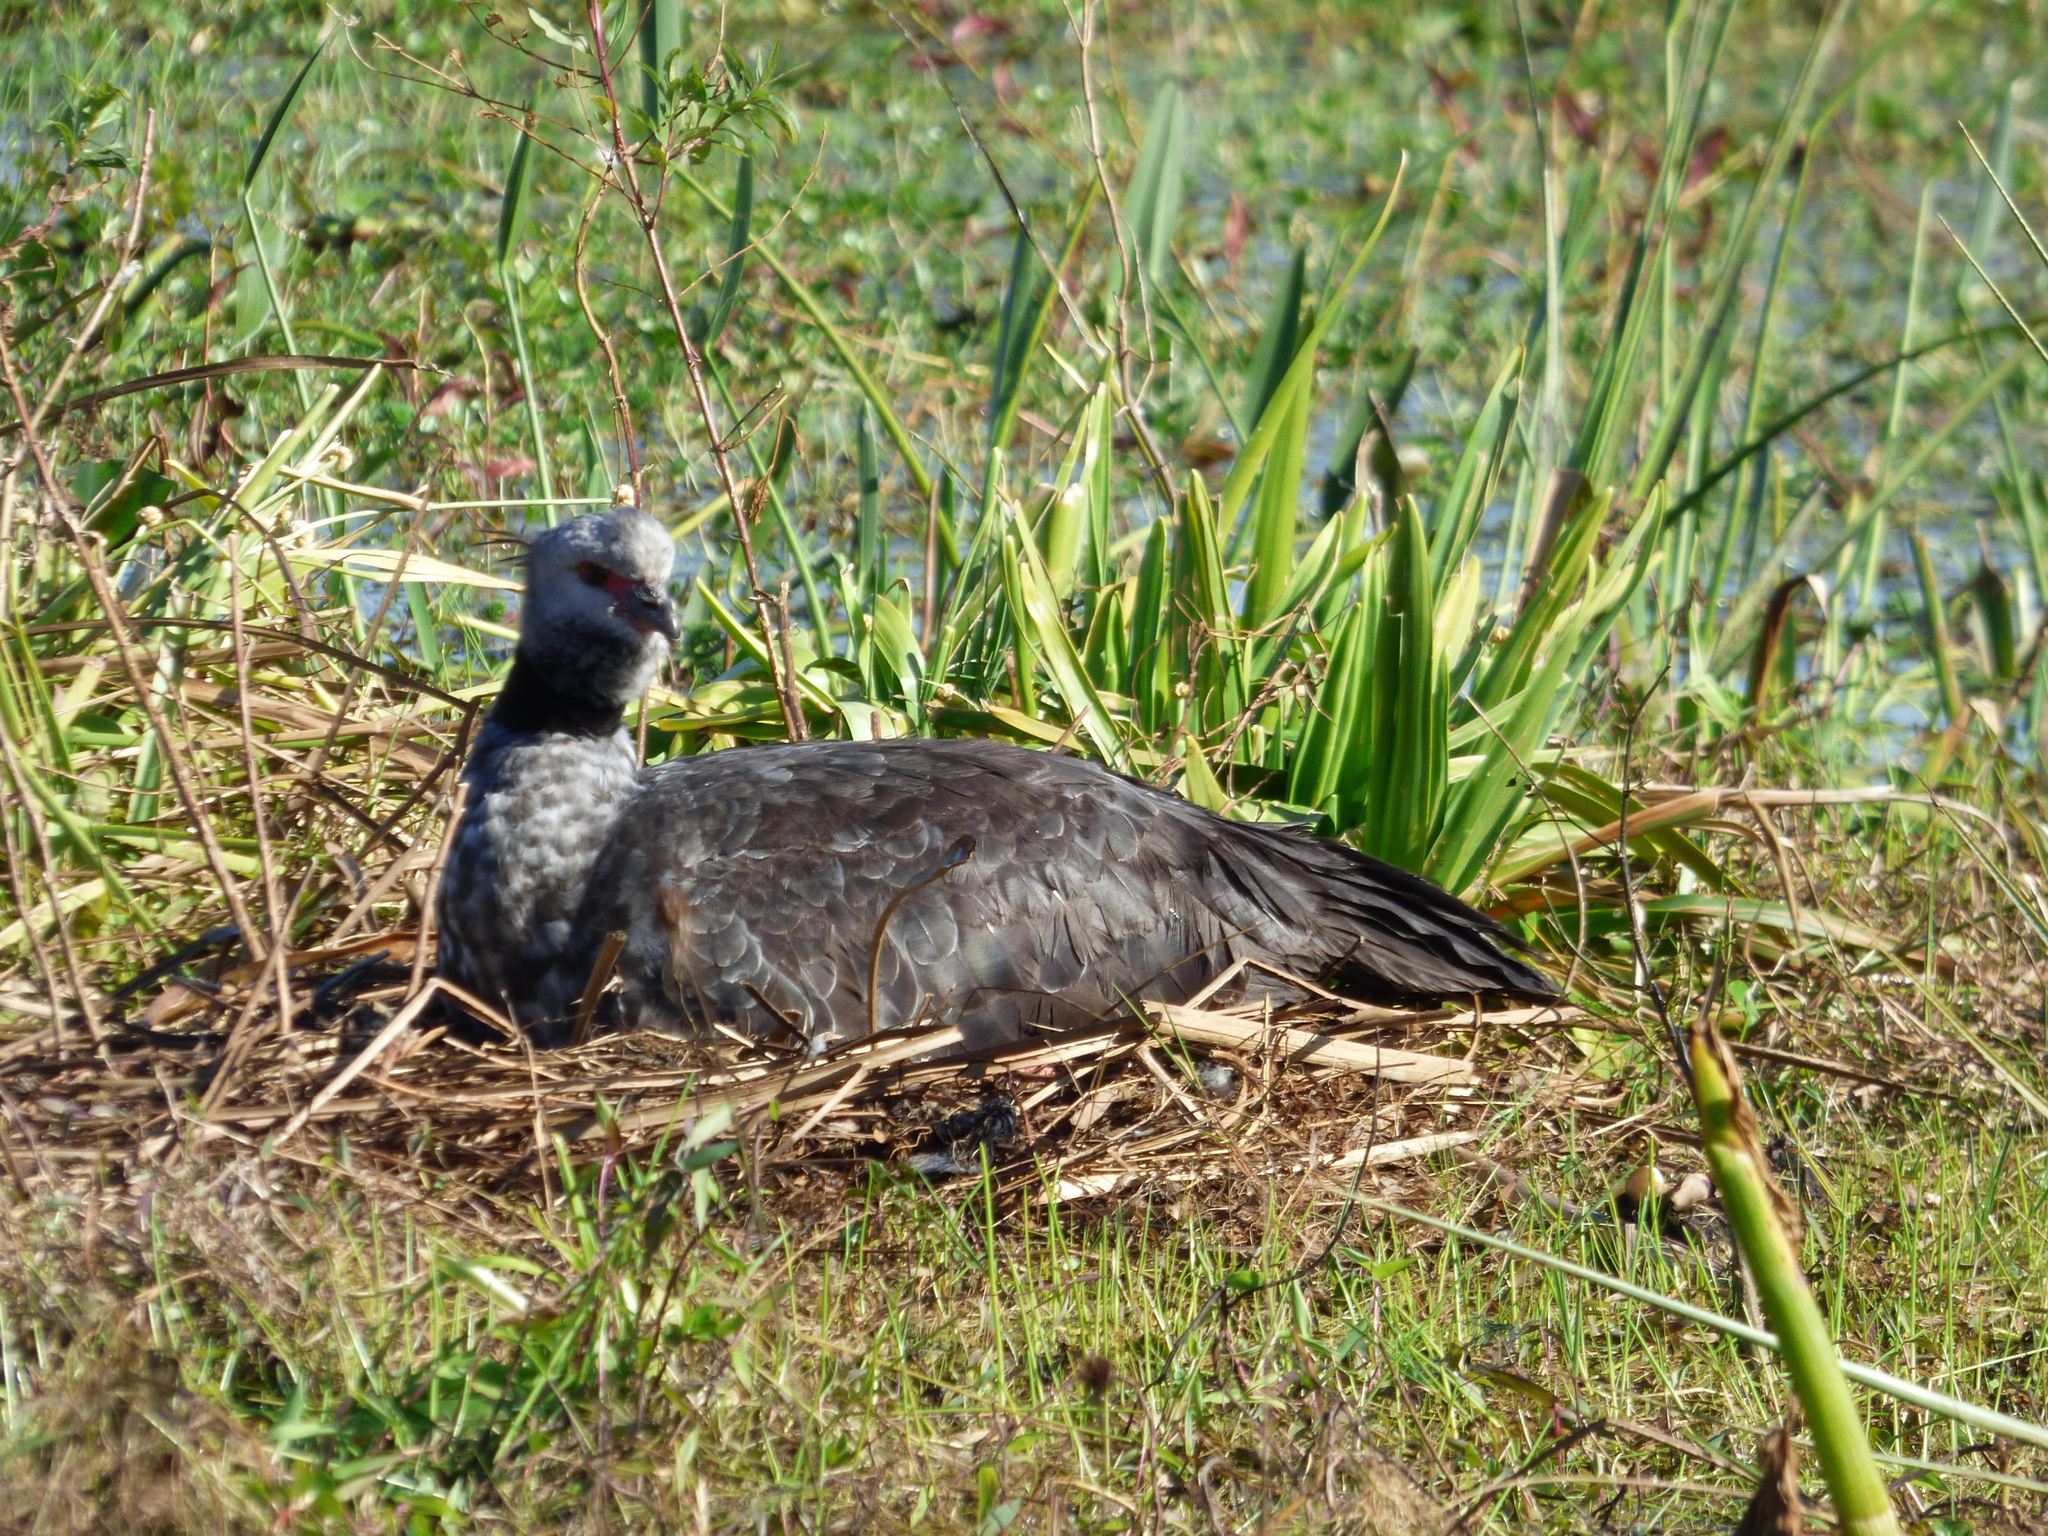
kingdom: Animalia
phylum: Chordata
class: Aves
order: Anseriformes
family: Anhimidae
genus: Chauna
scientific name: Chauna torquata
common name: Southern screamer
